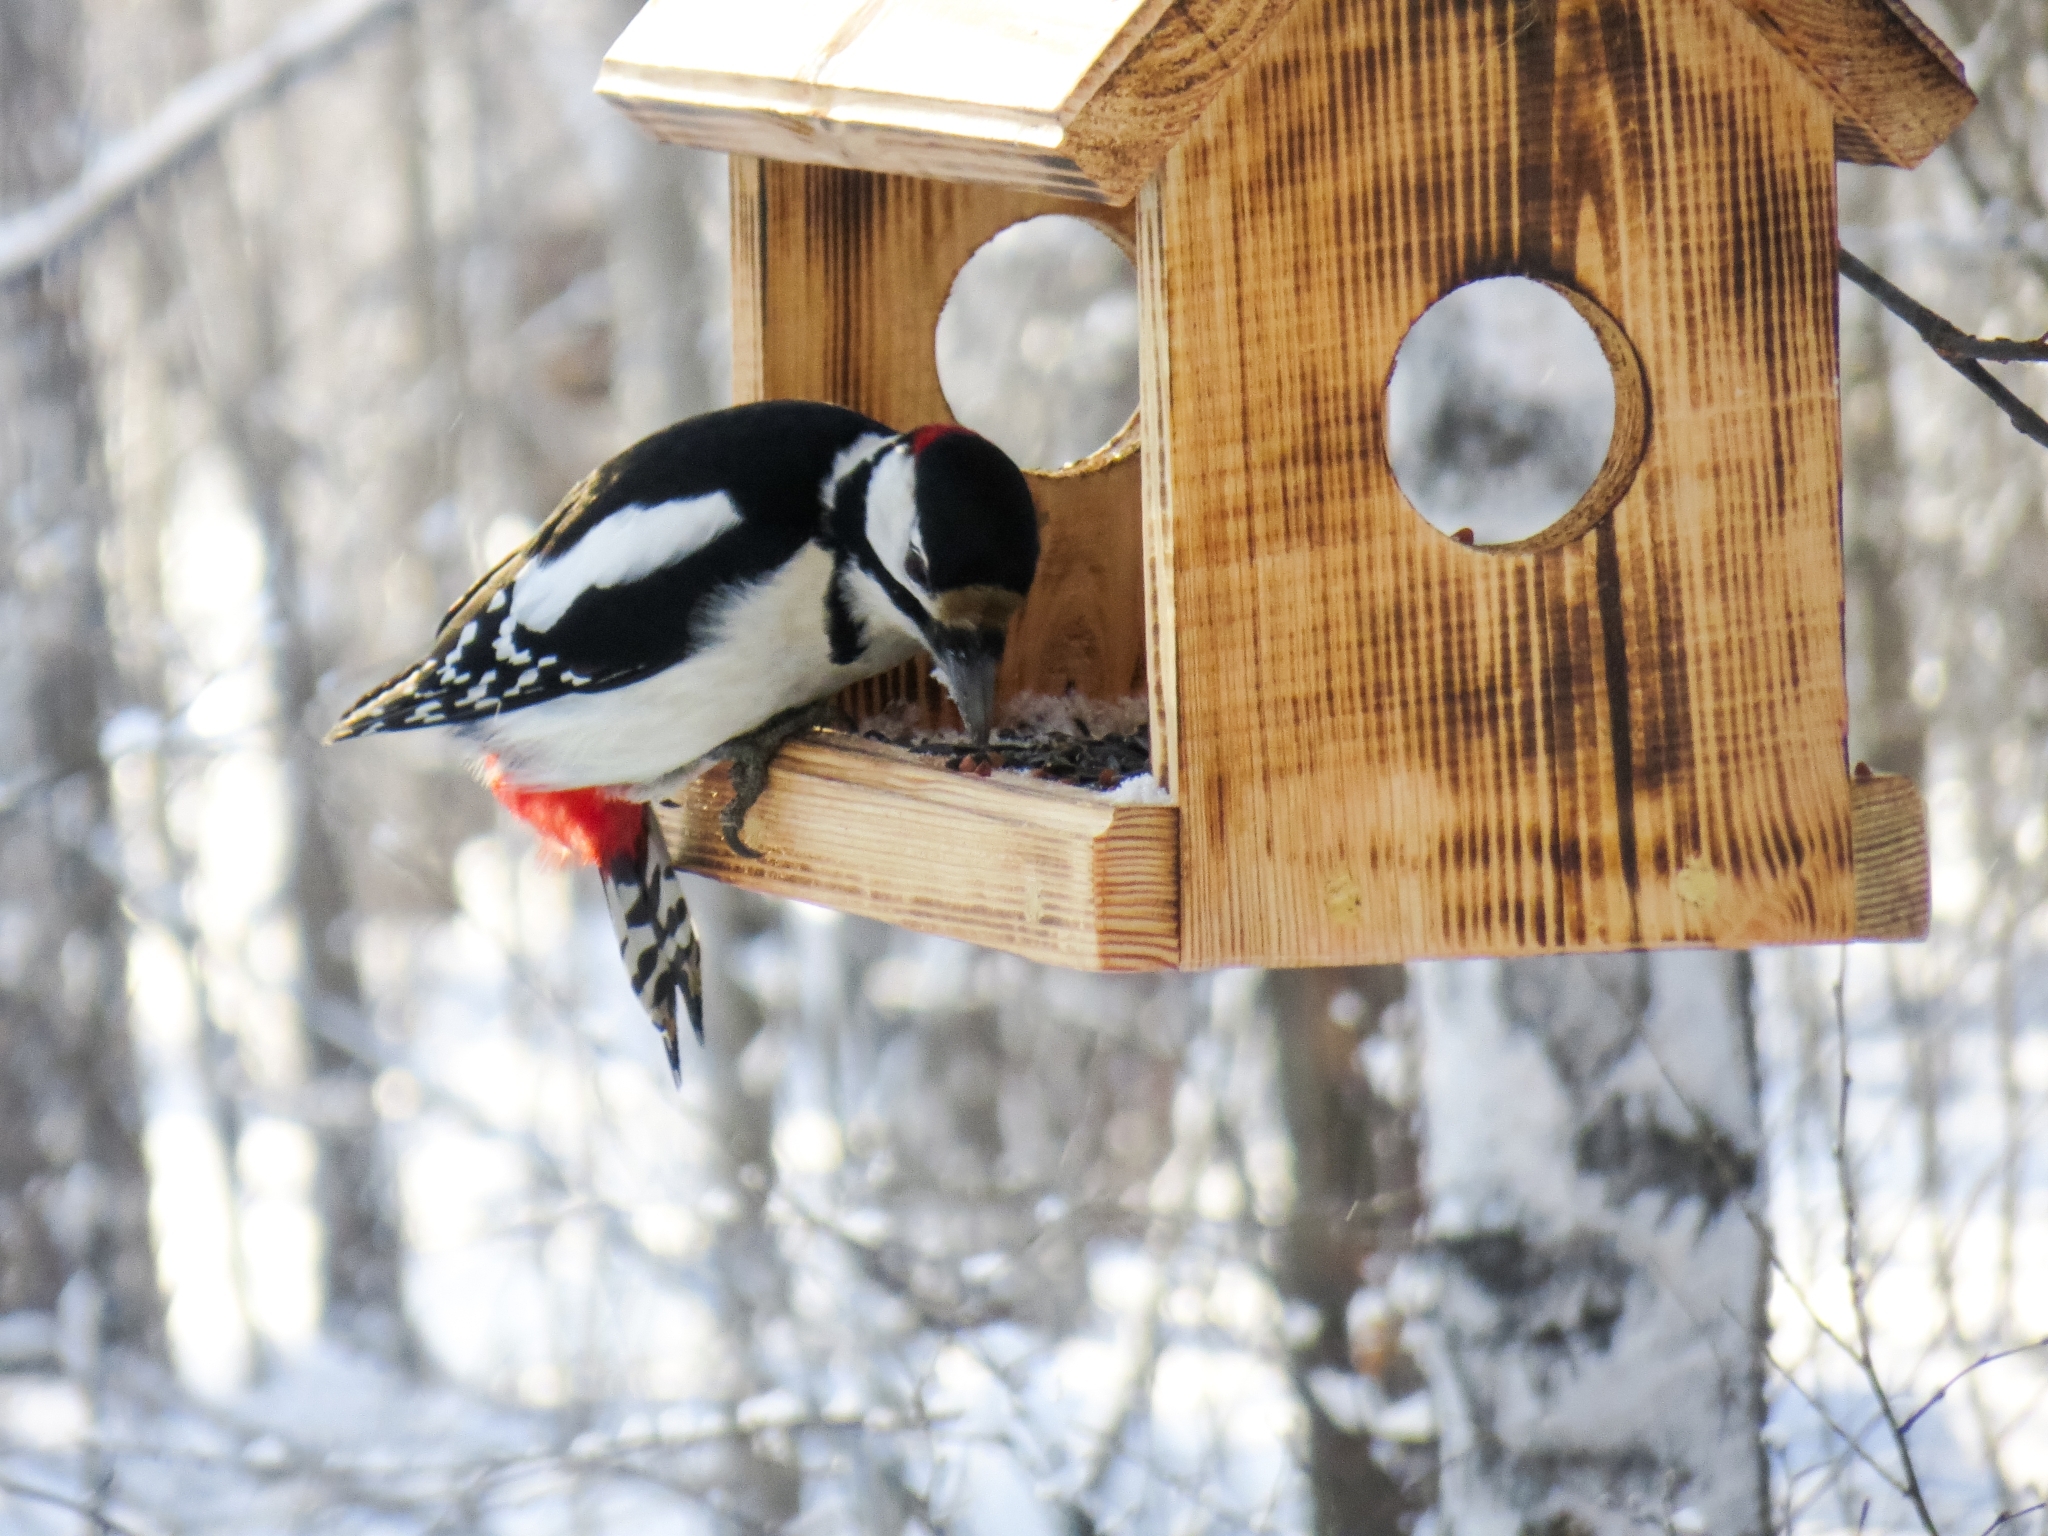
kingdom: Animalia
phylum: Chordata
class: Aves
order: Piciformes
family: Picidae
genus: Dendrocopos
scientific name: Dendrocopos major
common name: Great spotted woodpecker
